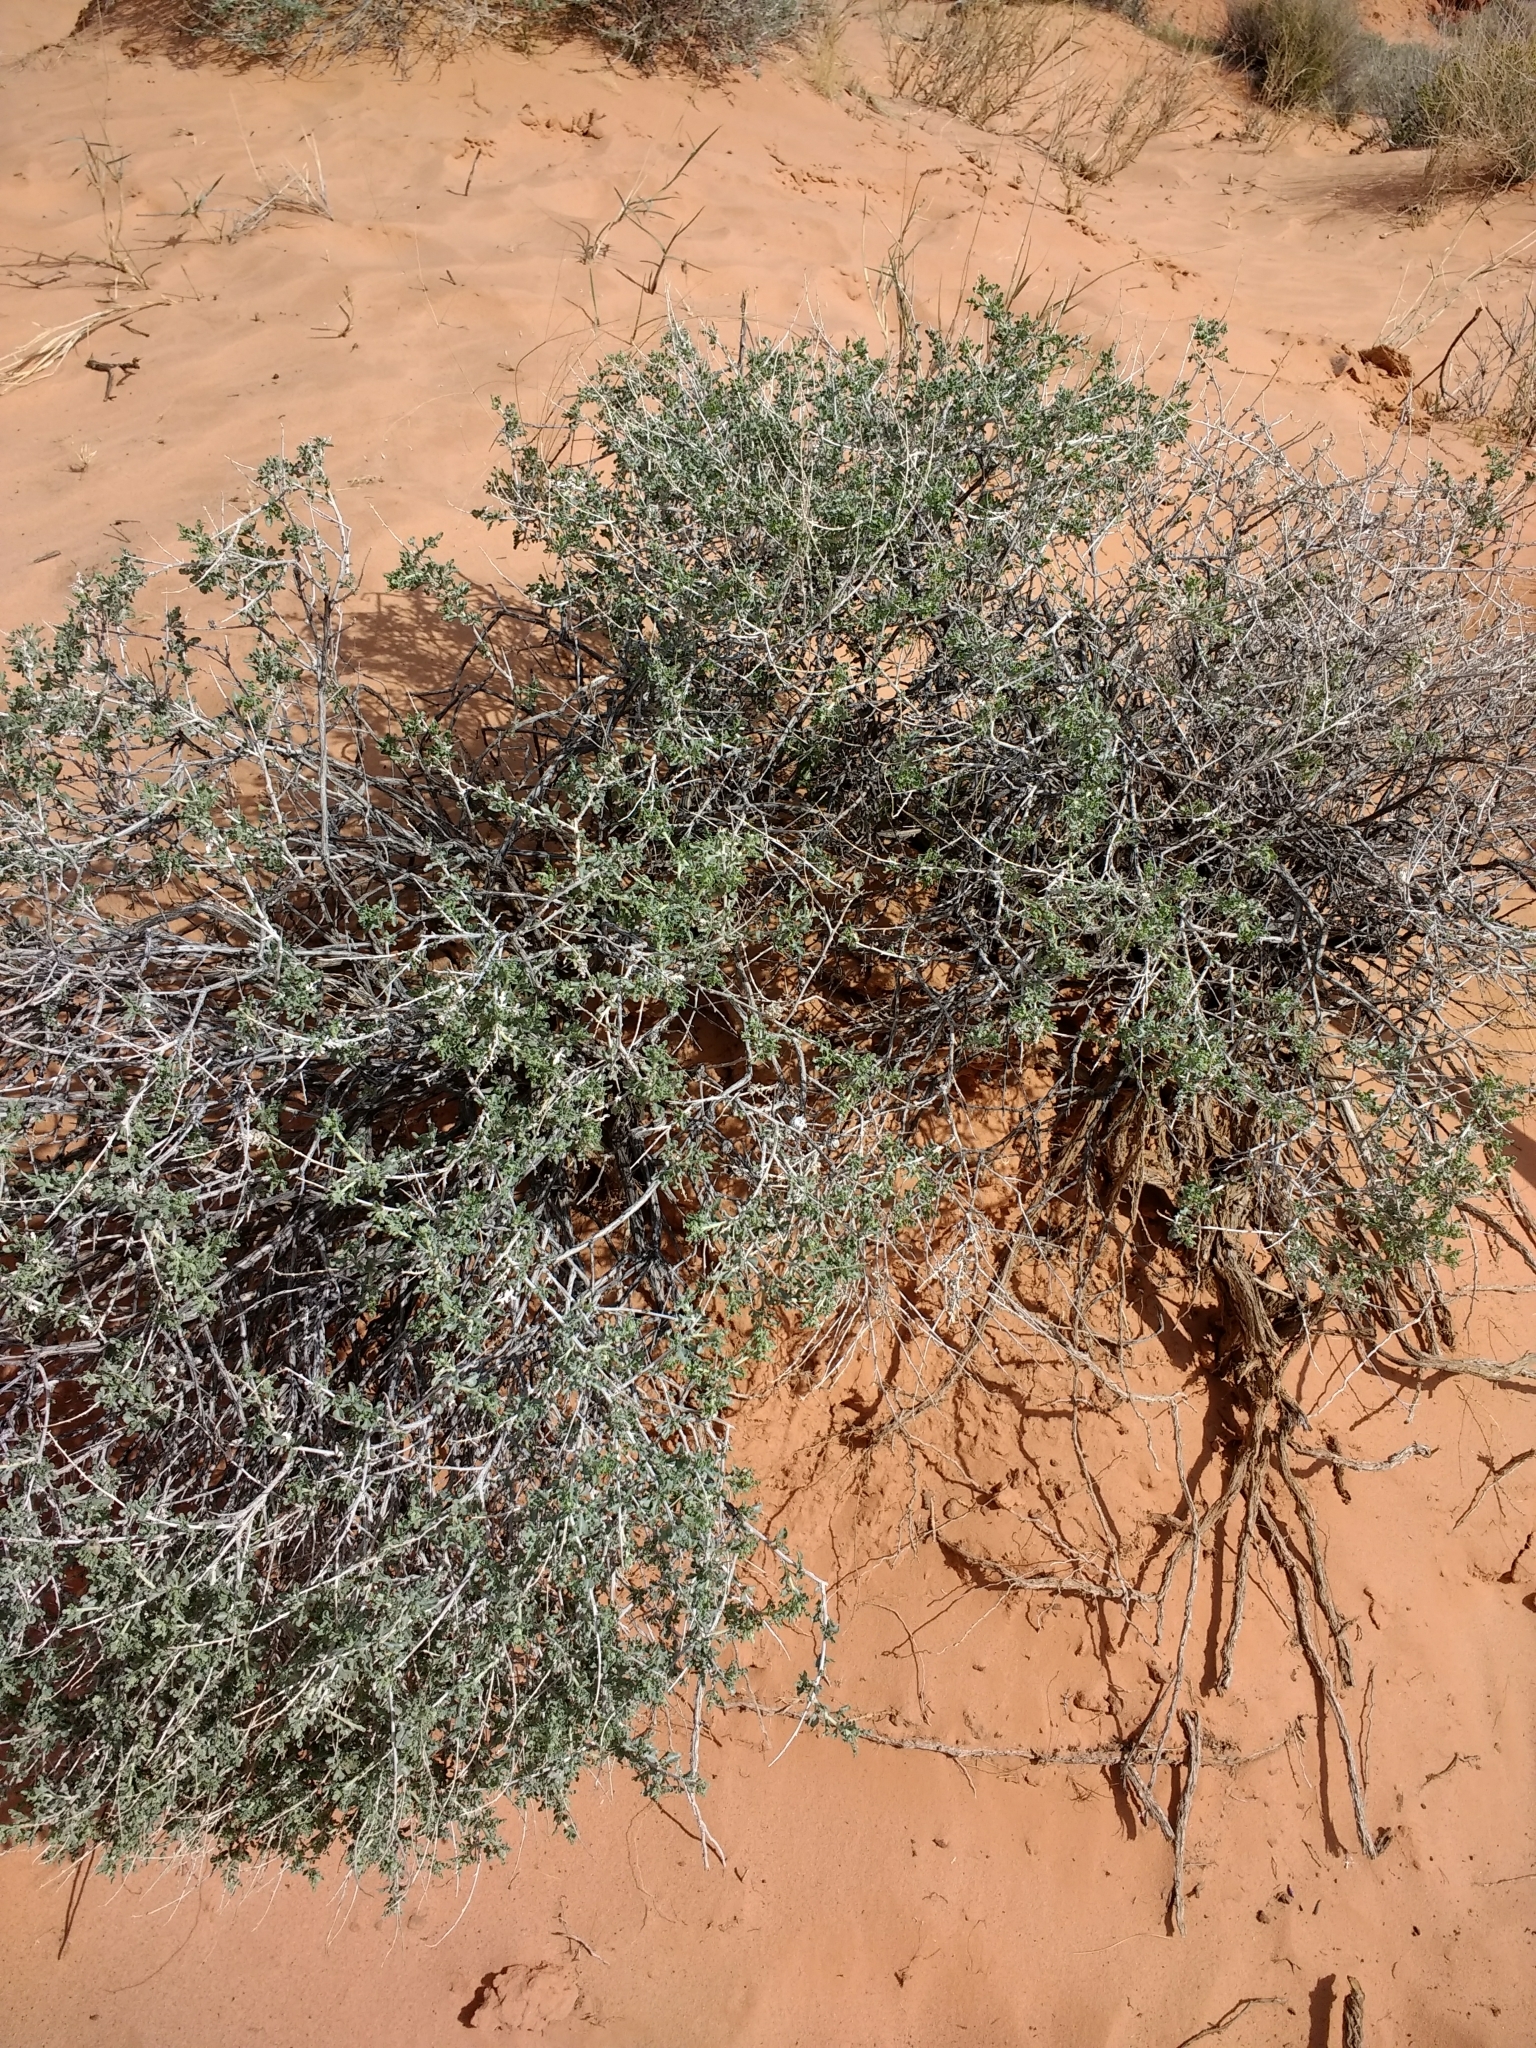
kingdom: Plantae
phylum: Tracheophyta
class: Magnoliopsida
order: Asterales
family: Asteraceae
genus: Ambrosia
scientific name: Ambrosia dumosa
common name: Bur-sage
